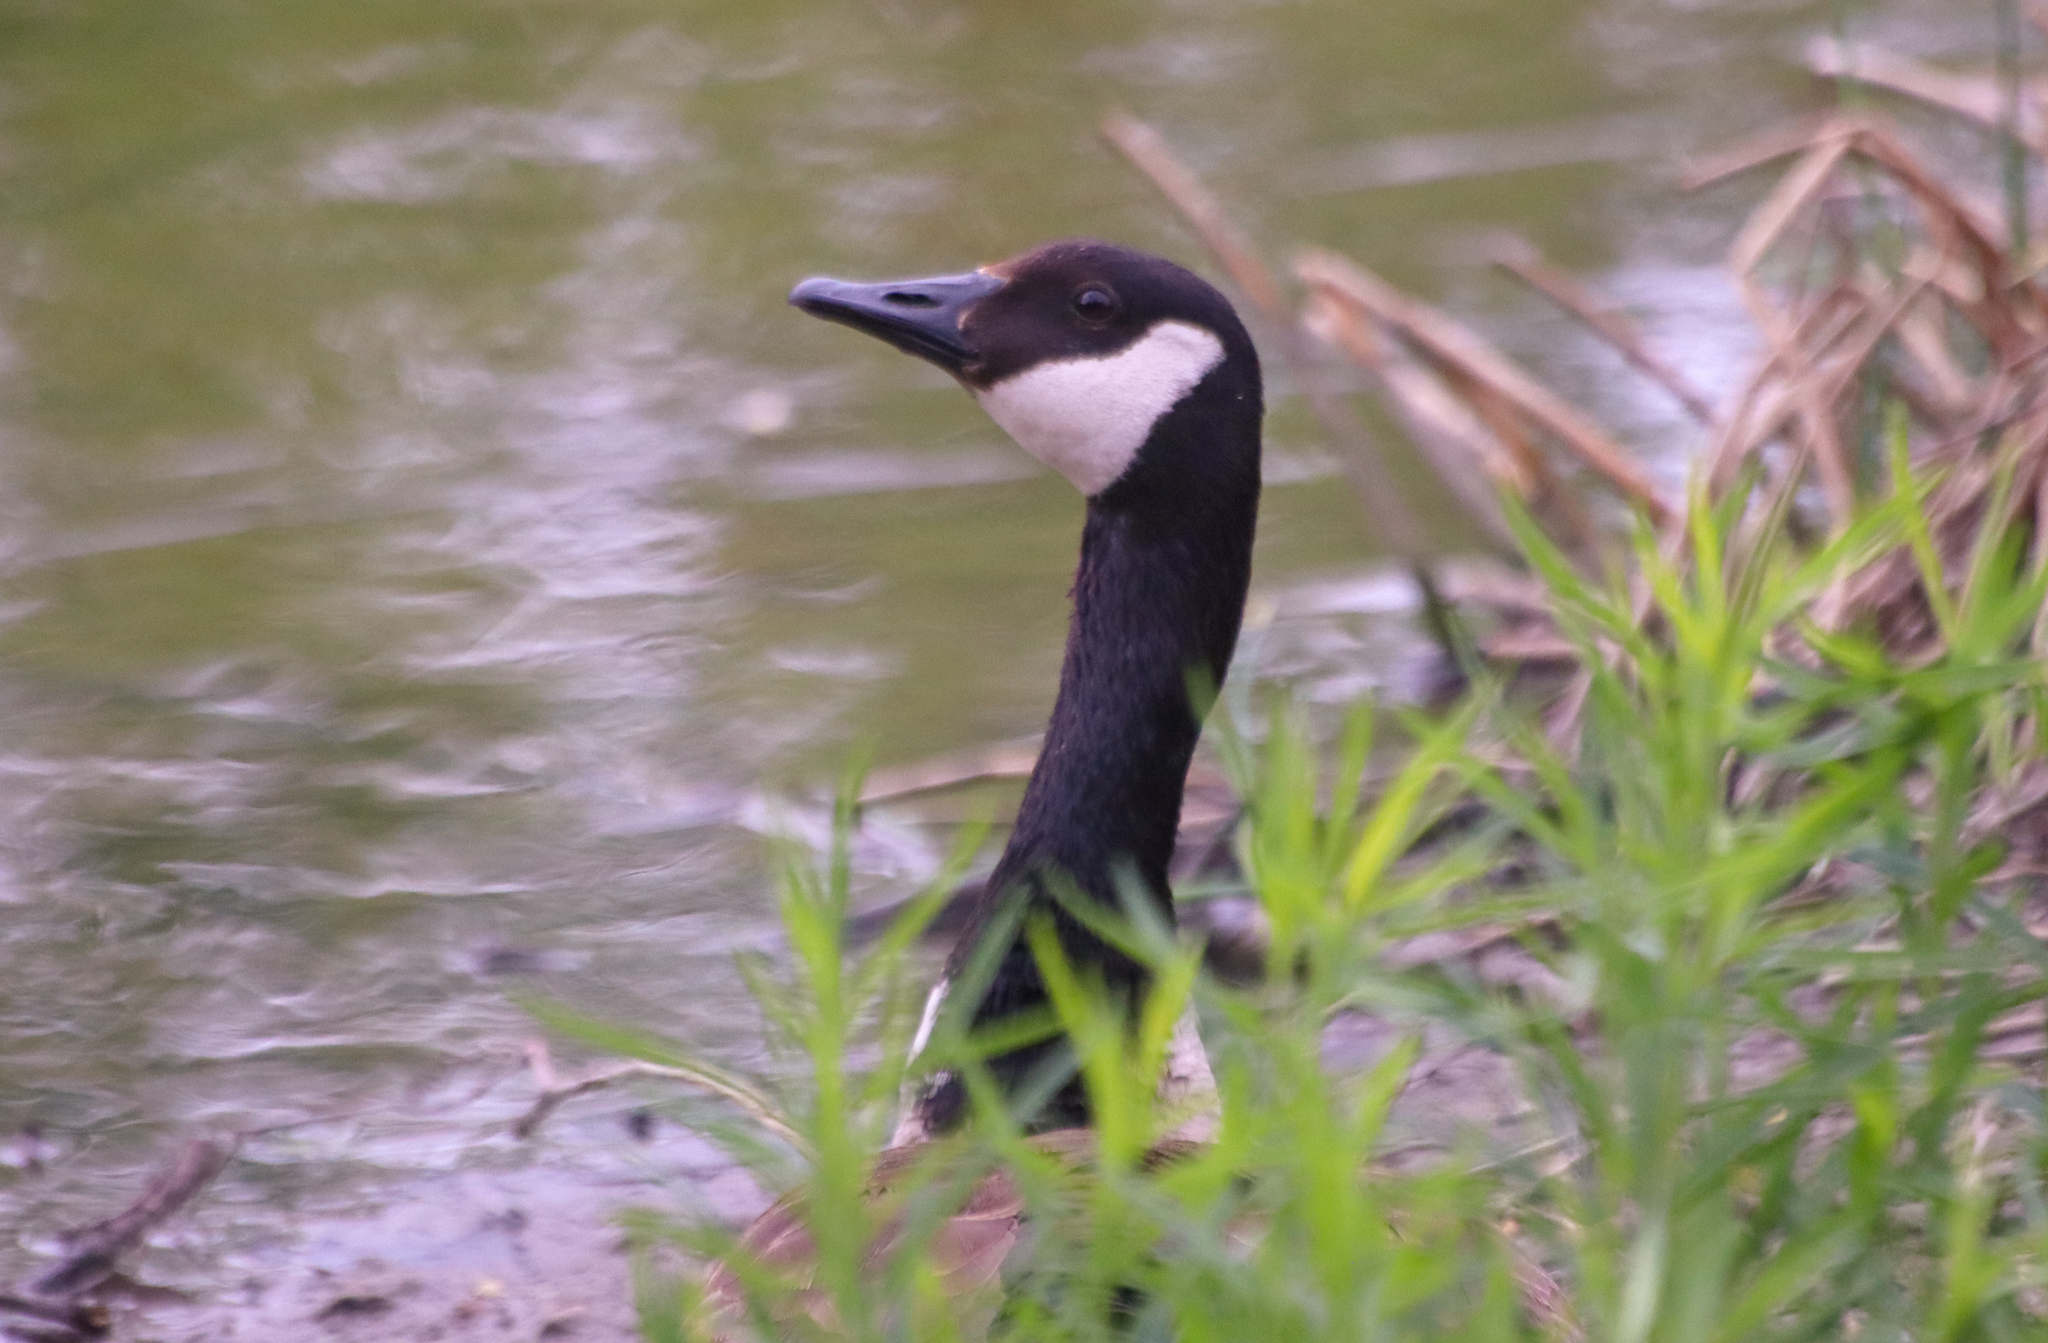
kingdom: Animalia
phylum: Chordata
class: Aves
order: Anseriformes
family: Anatidae
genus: Branta
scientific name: Branta canadensis
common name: Canada goose
